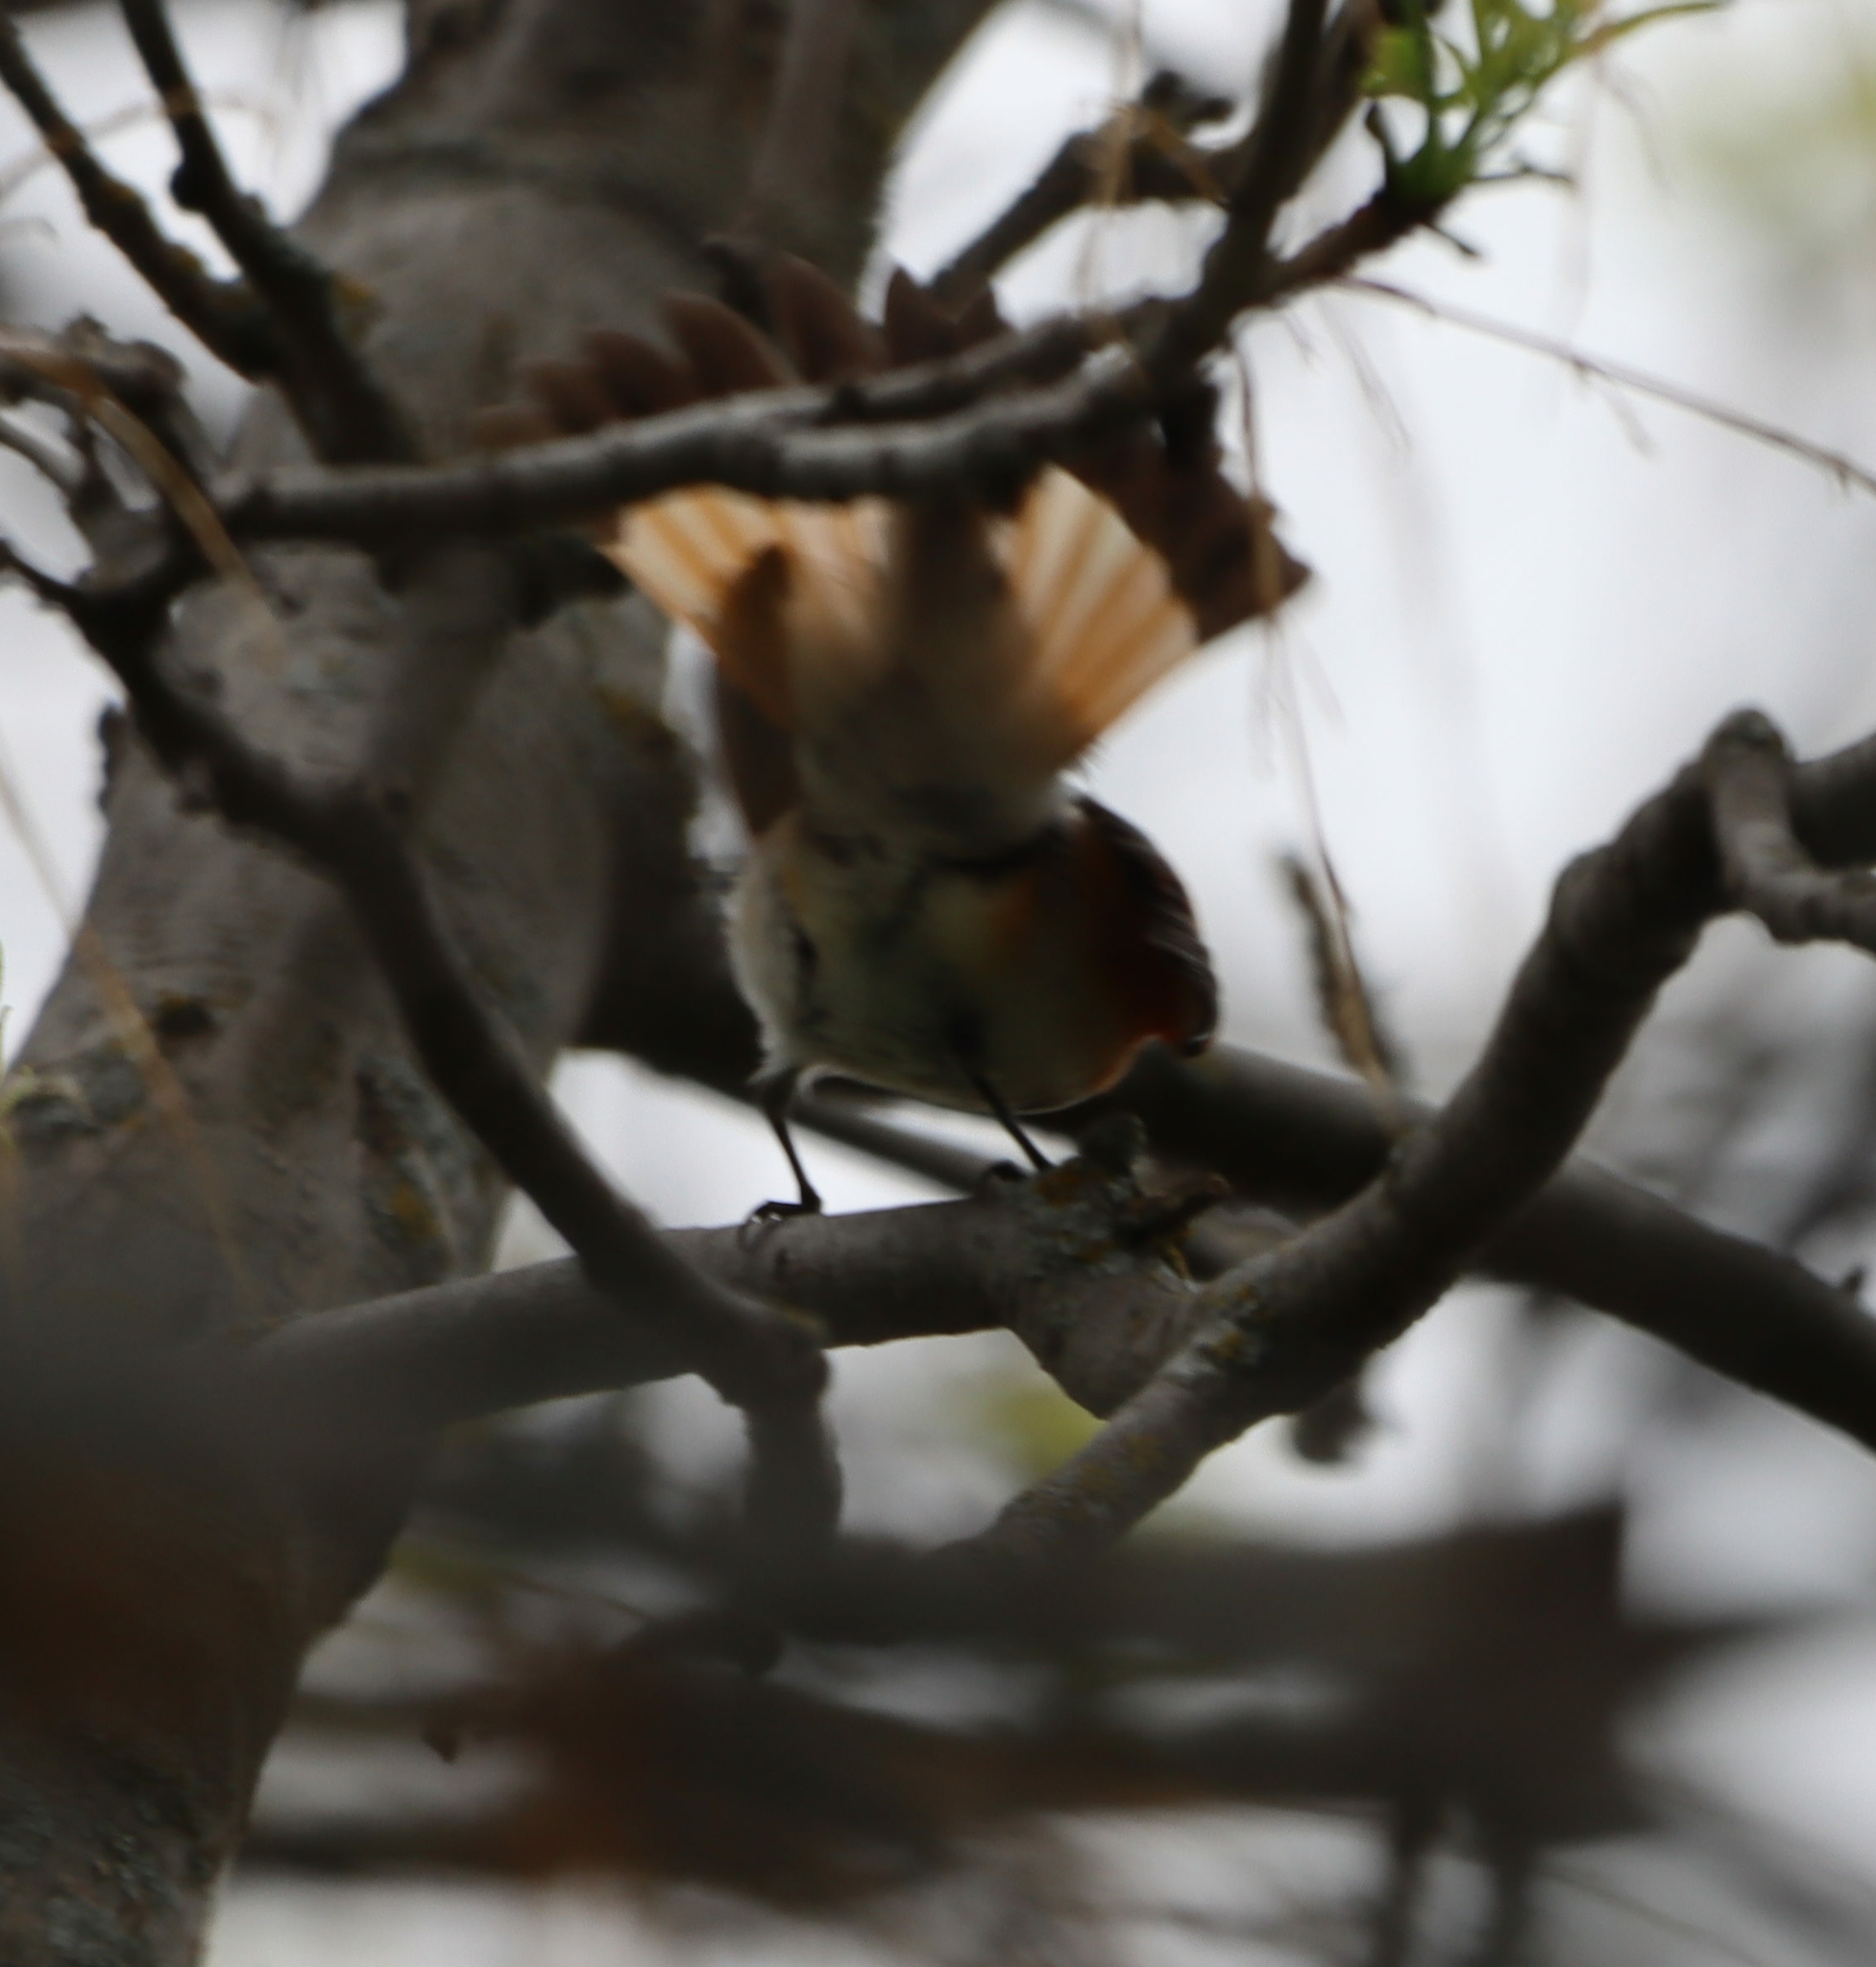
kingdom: Animalia
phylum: Chordata
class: Aves
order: Passeriformes
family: Parulidae
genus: Setophaga
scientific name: Setophaga ruticilla
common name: American redstart
